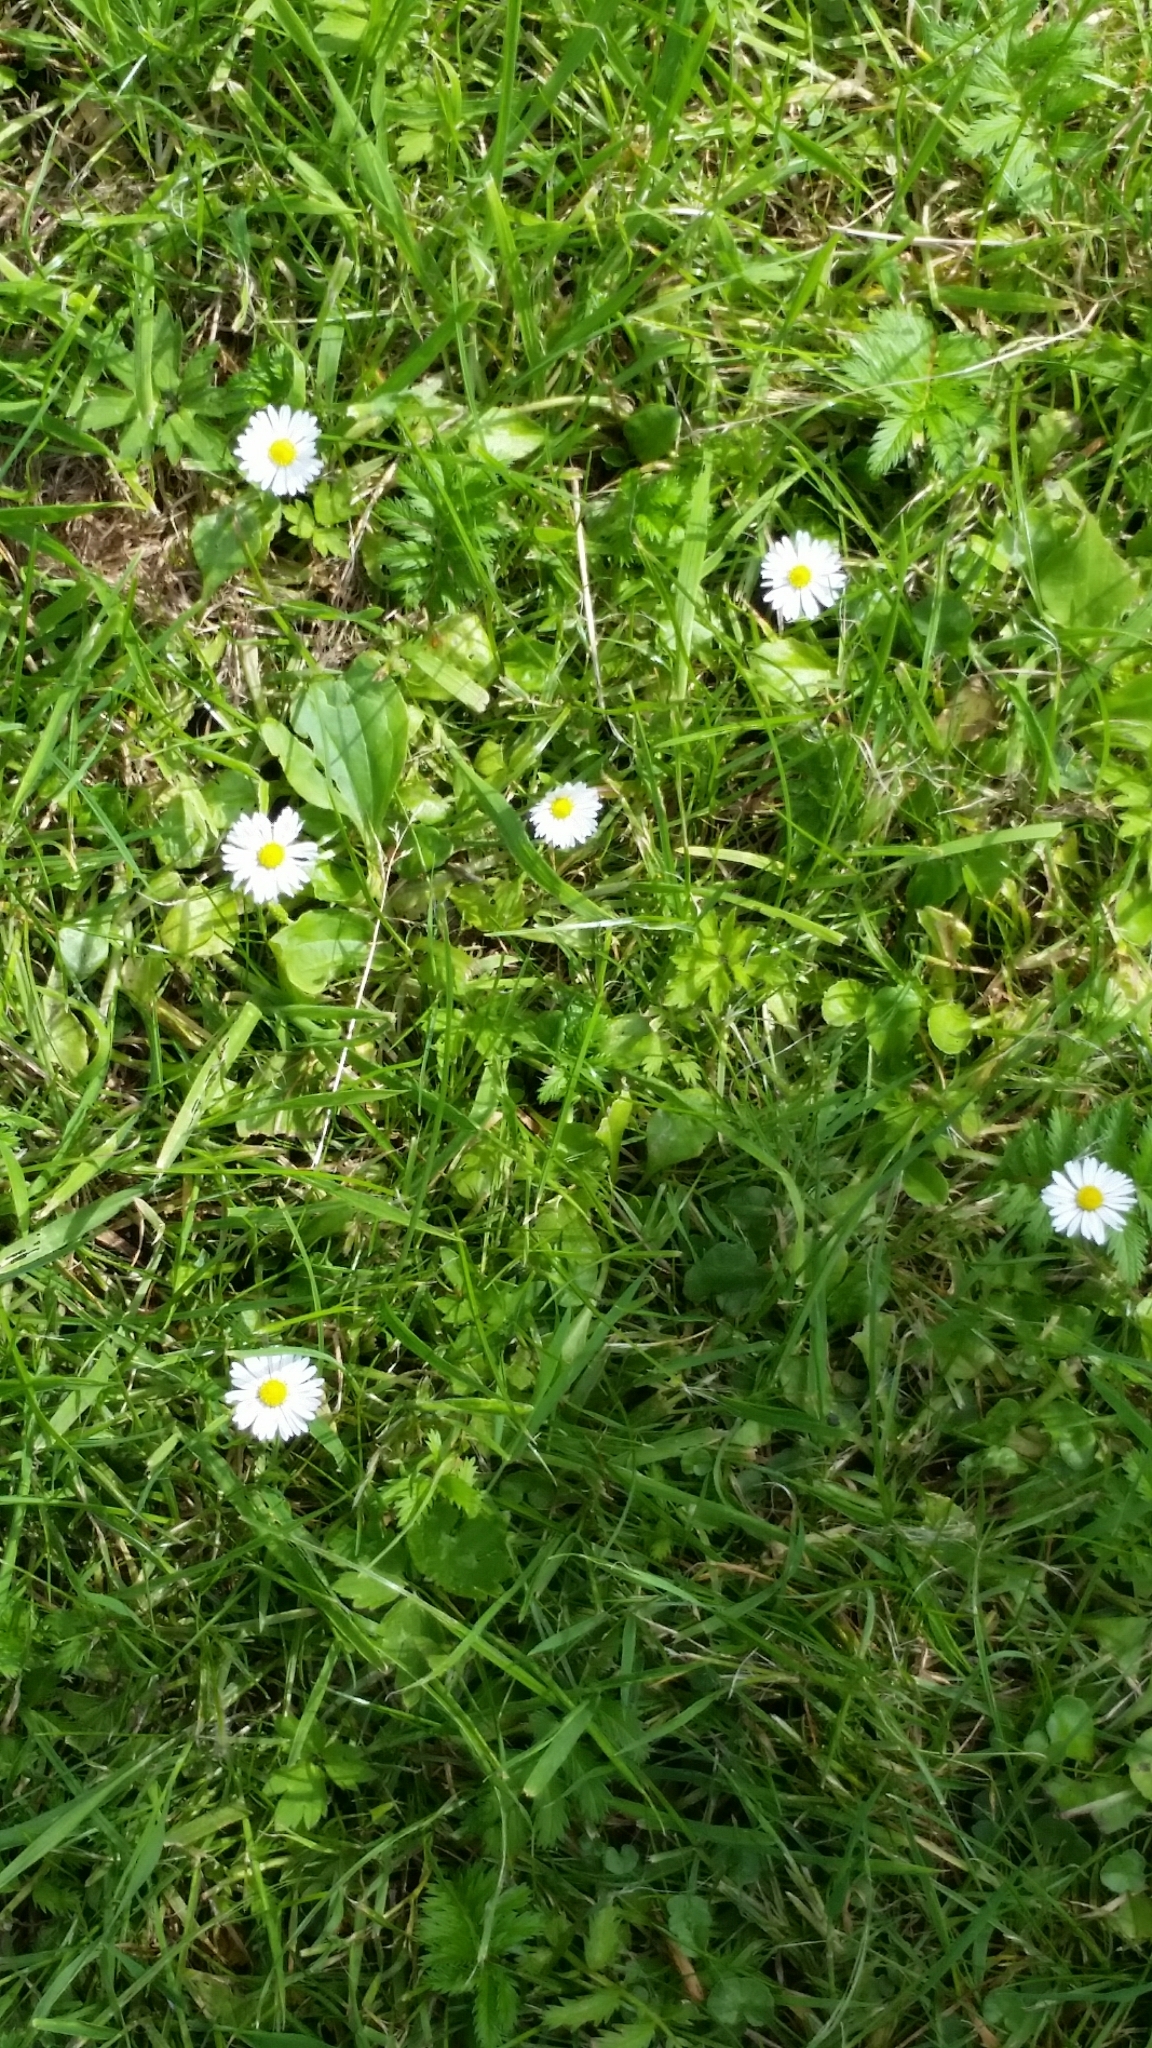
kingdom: Plantae
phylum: Tracheophyta
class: Magnoliopsida
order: Asterales
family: Asteraceae
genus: Bellis
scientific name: Bellis perennis
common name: Lawndaisy
